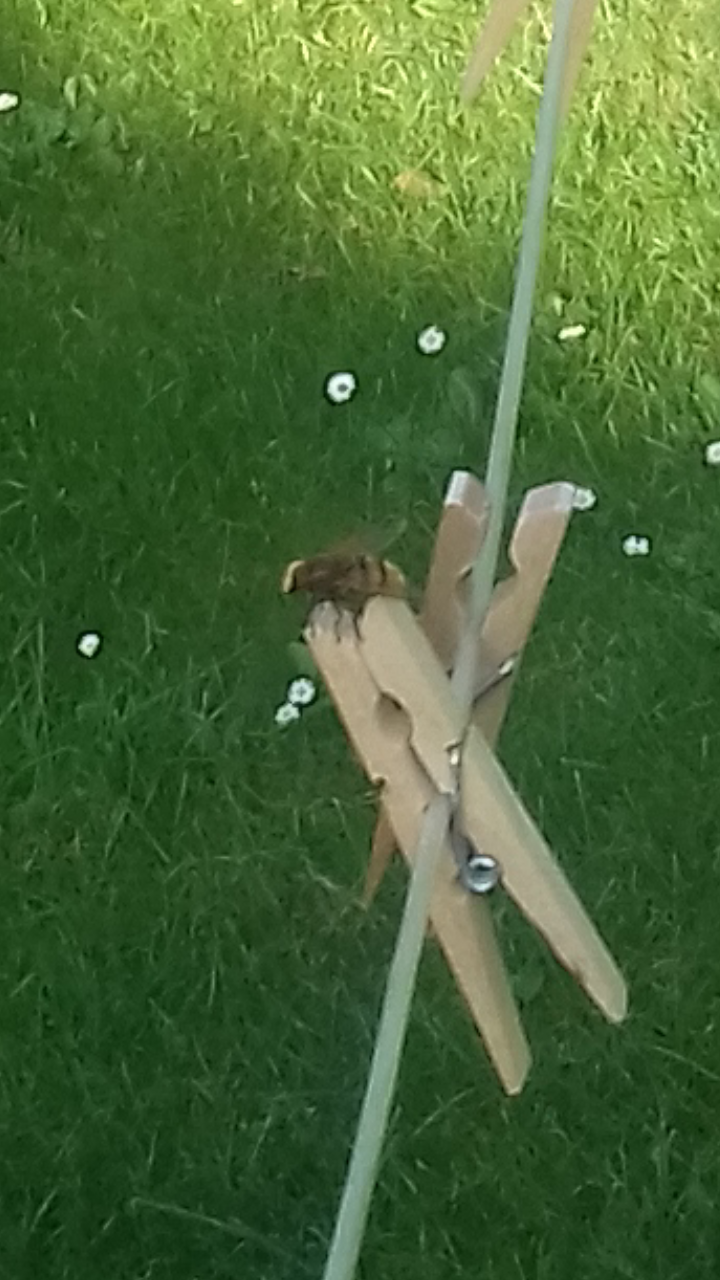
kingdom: Animalia
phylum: Arthropoda
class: Insecta
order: Diptera
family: Syrphidae
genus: Volucella
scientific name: Volucella zonaria
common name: Hornet hoverfly
